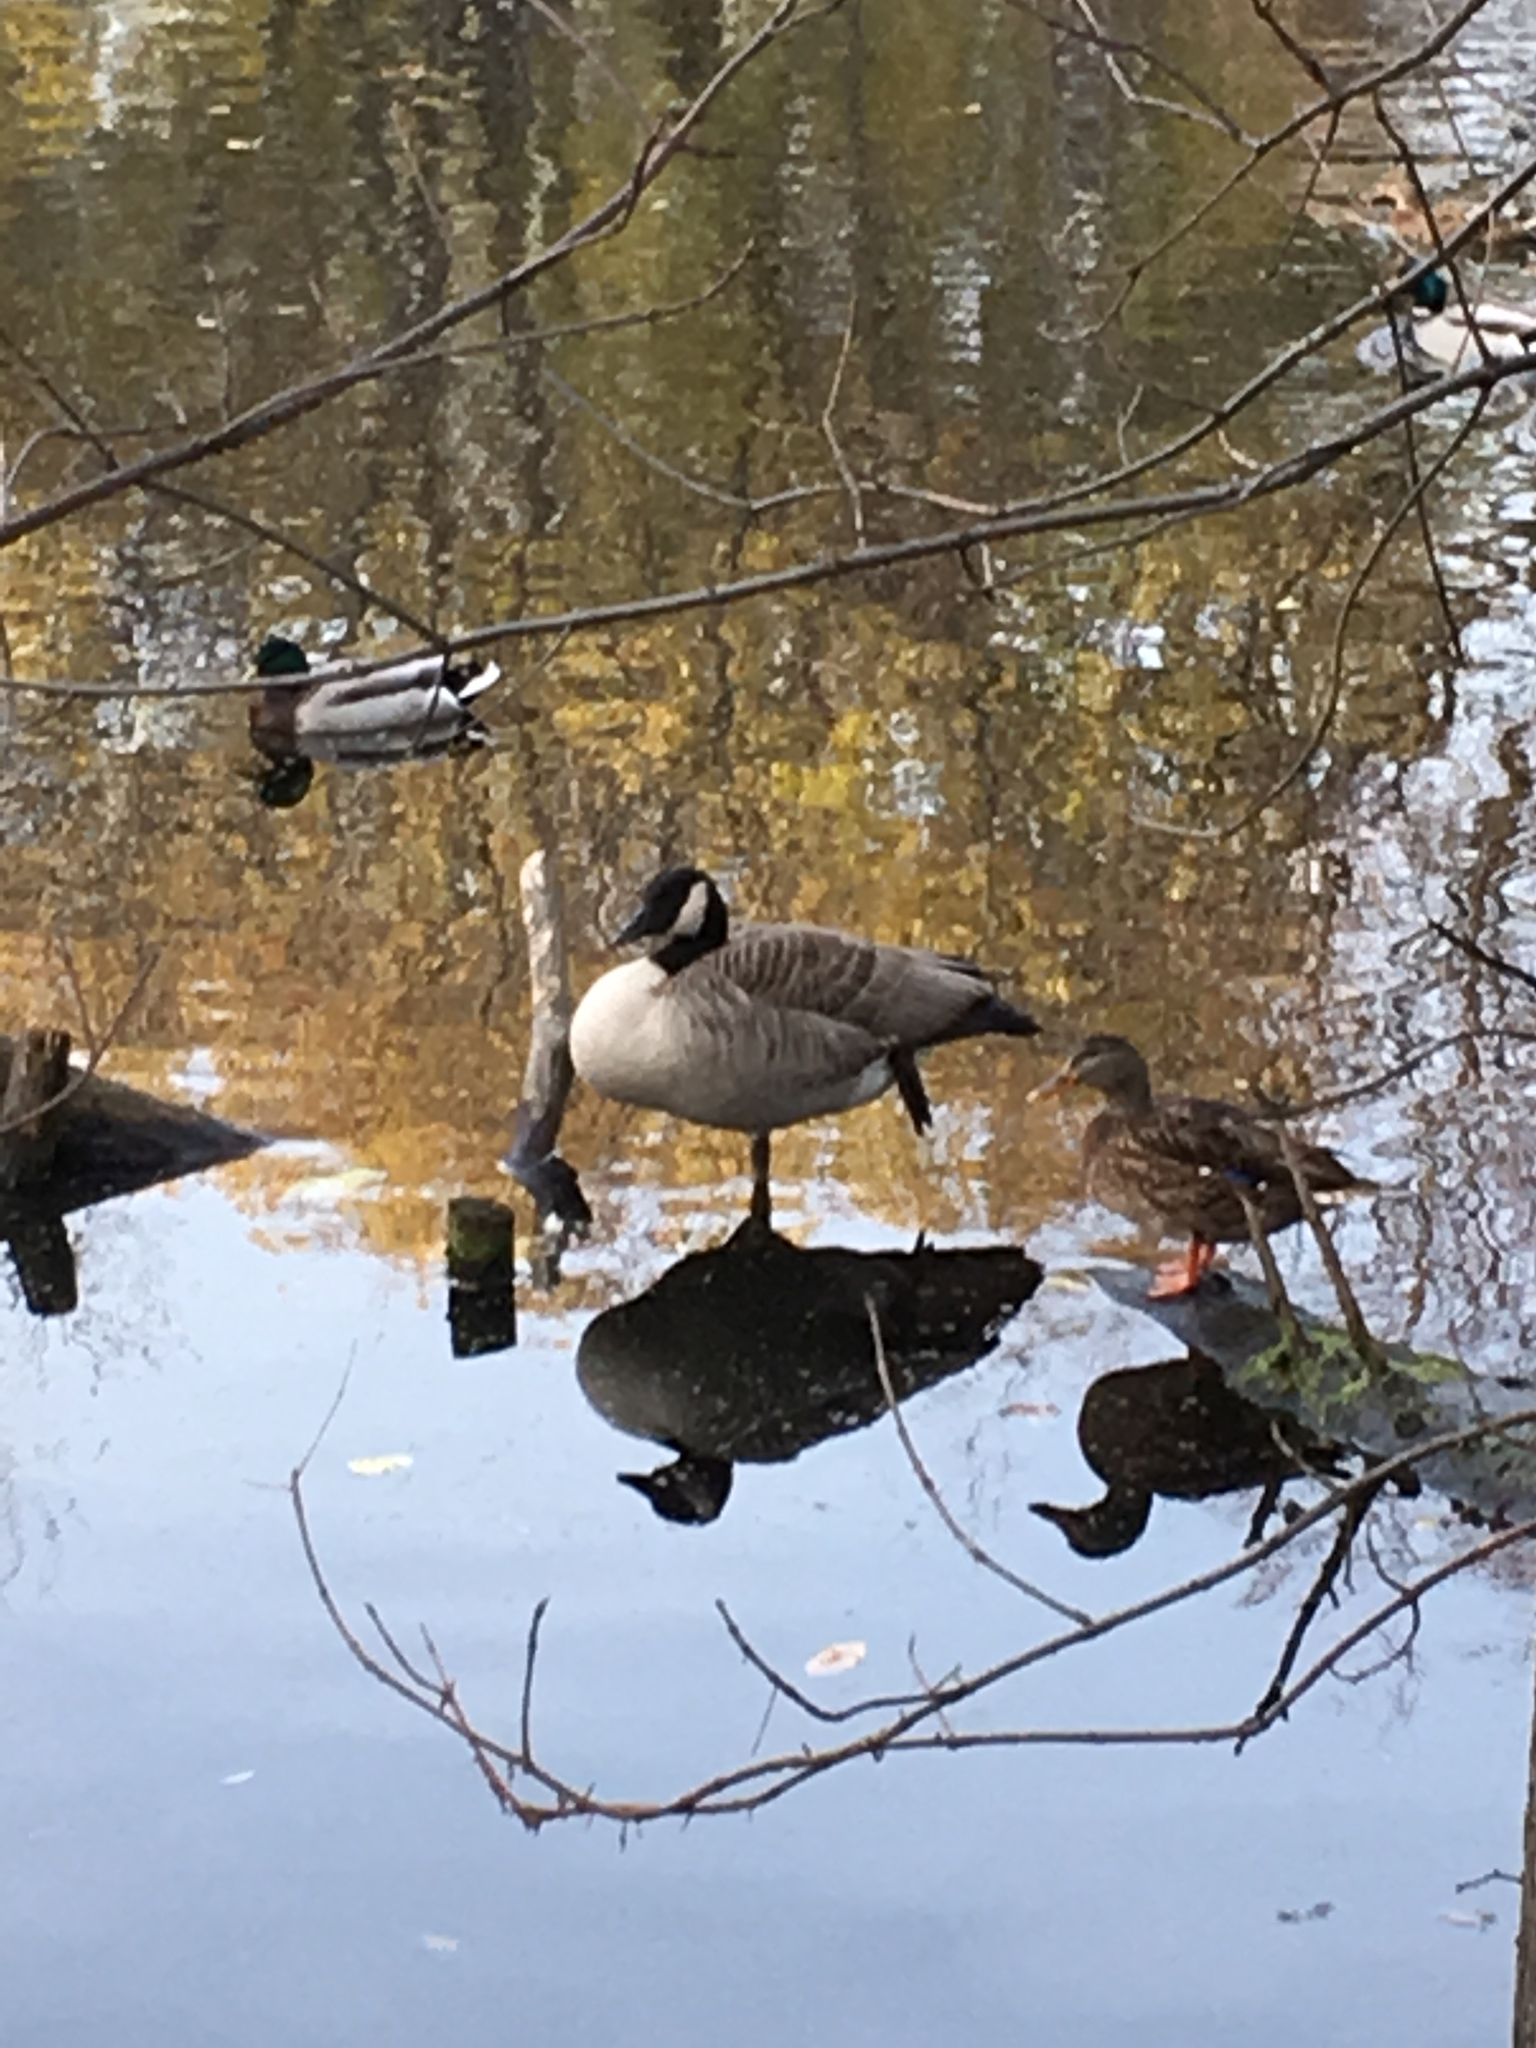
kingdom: Animalia
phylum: Chordata
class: Aves
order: Anseriformes
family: Anatidae
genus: Anas
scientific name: Anas platyrhynchos
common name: Mallard
